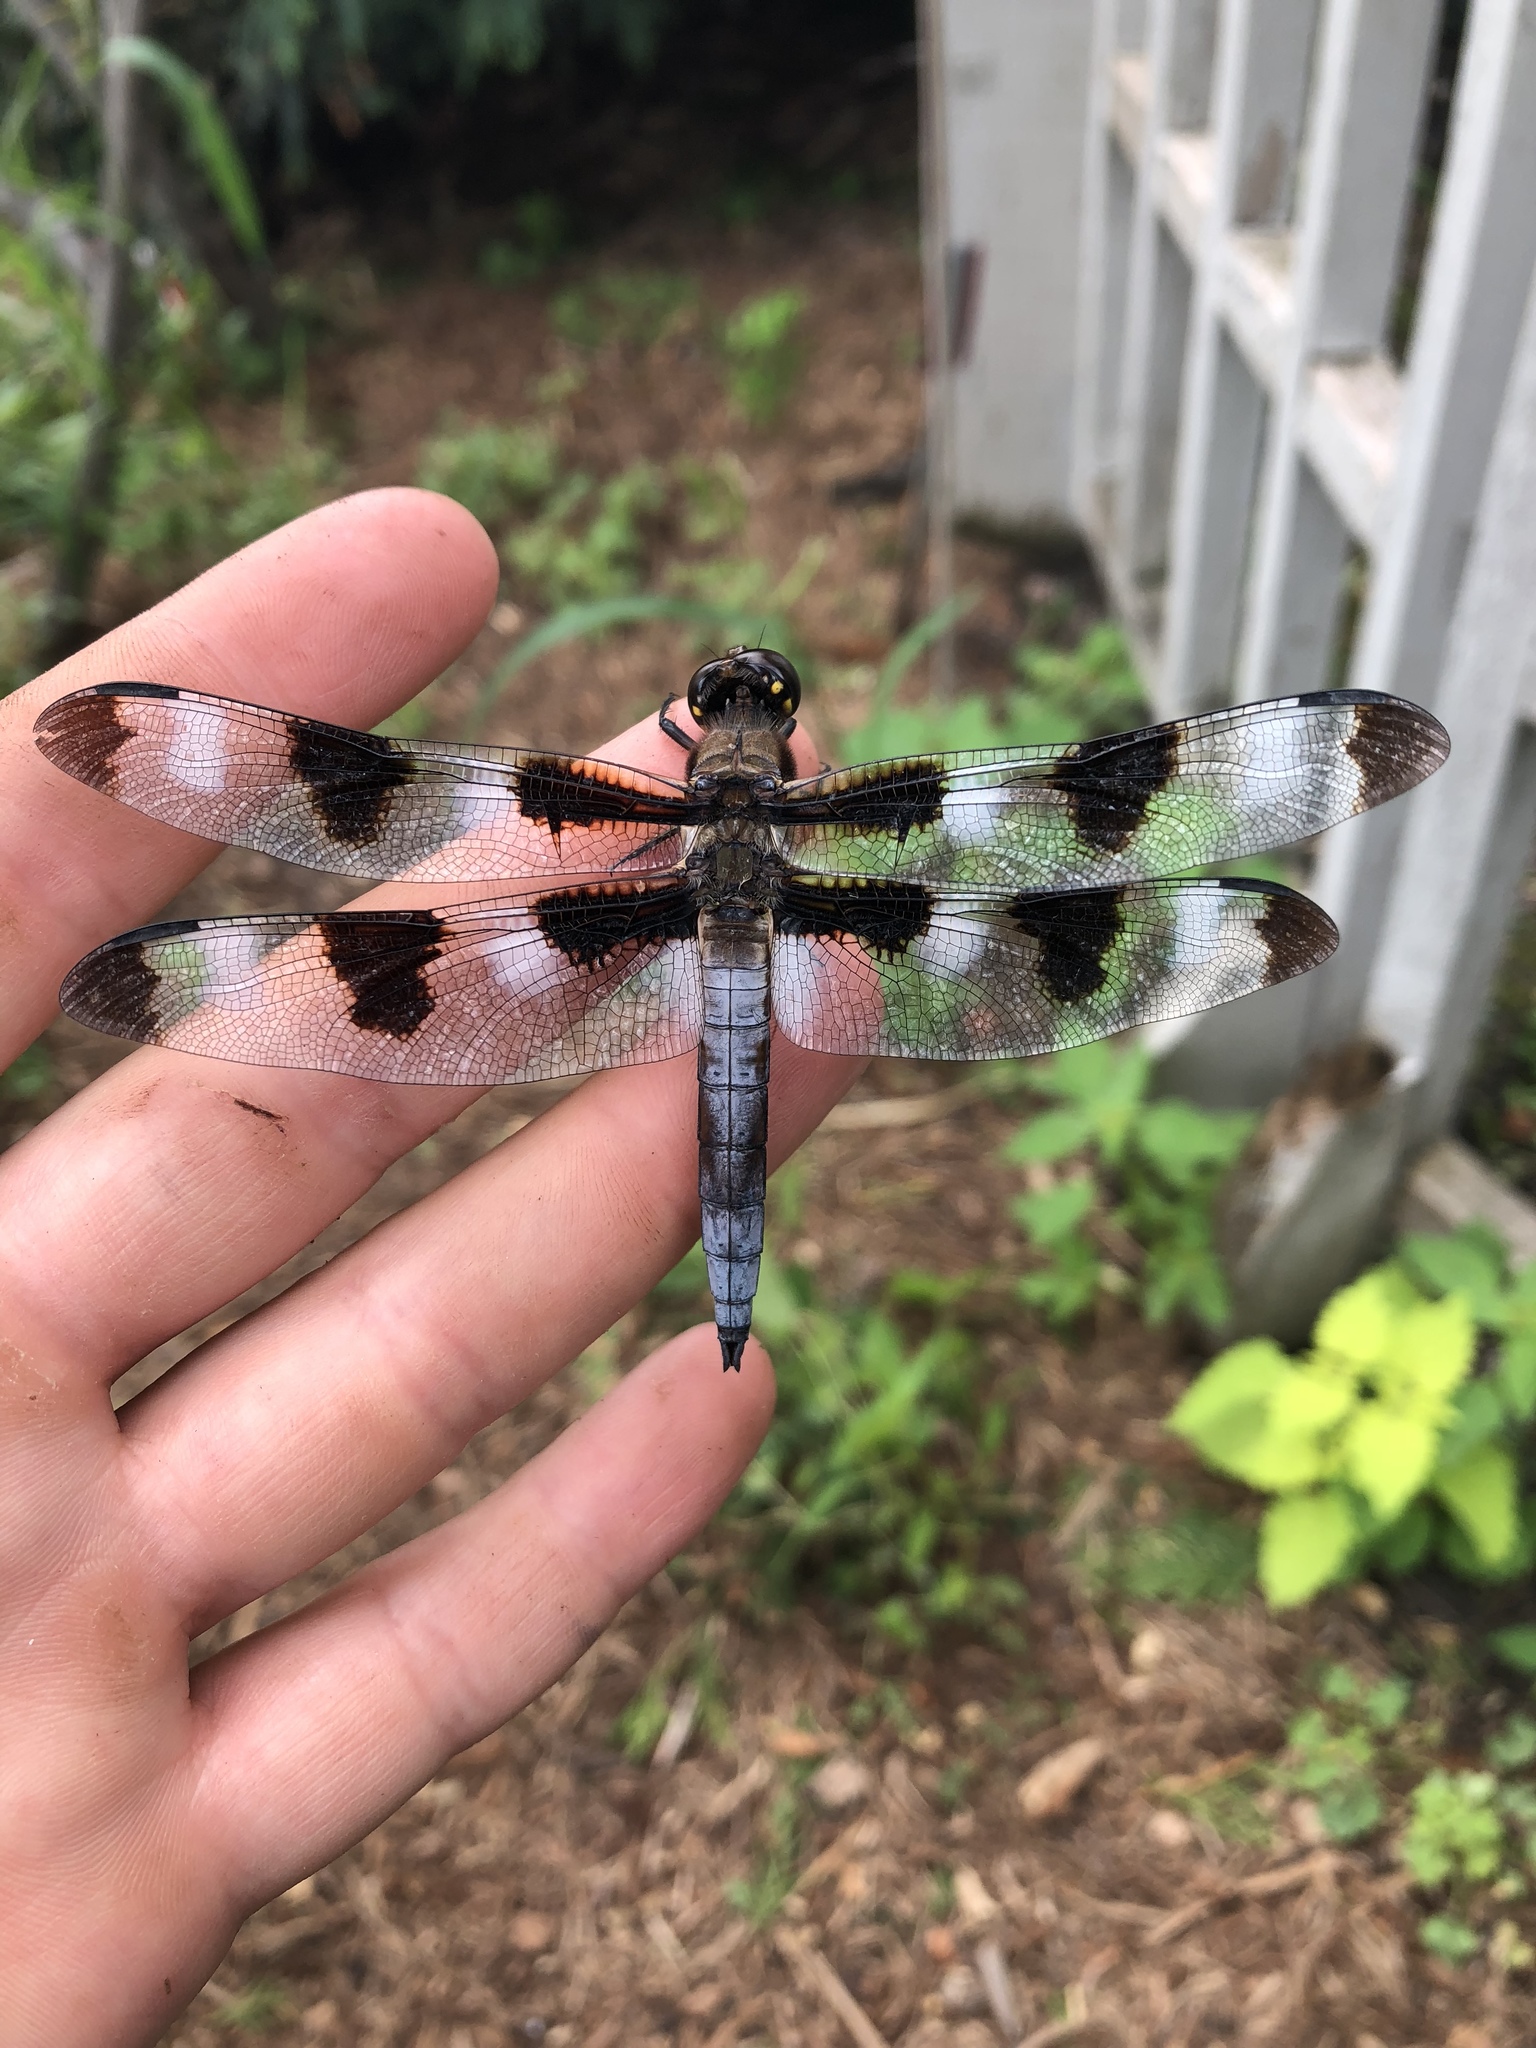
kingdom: Animalia
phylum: Arthropoda
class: Insecta
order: Odonata
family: Libellulidae
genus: Libellula
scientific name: Libellula pulchella
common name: Twelve-spotted skimmer
